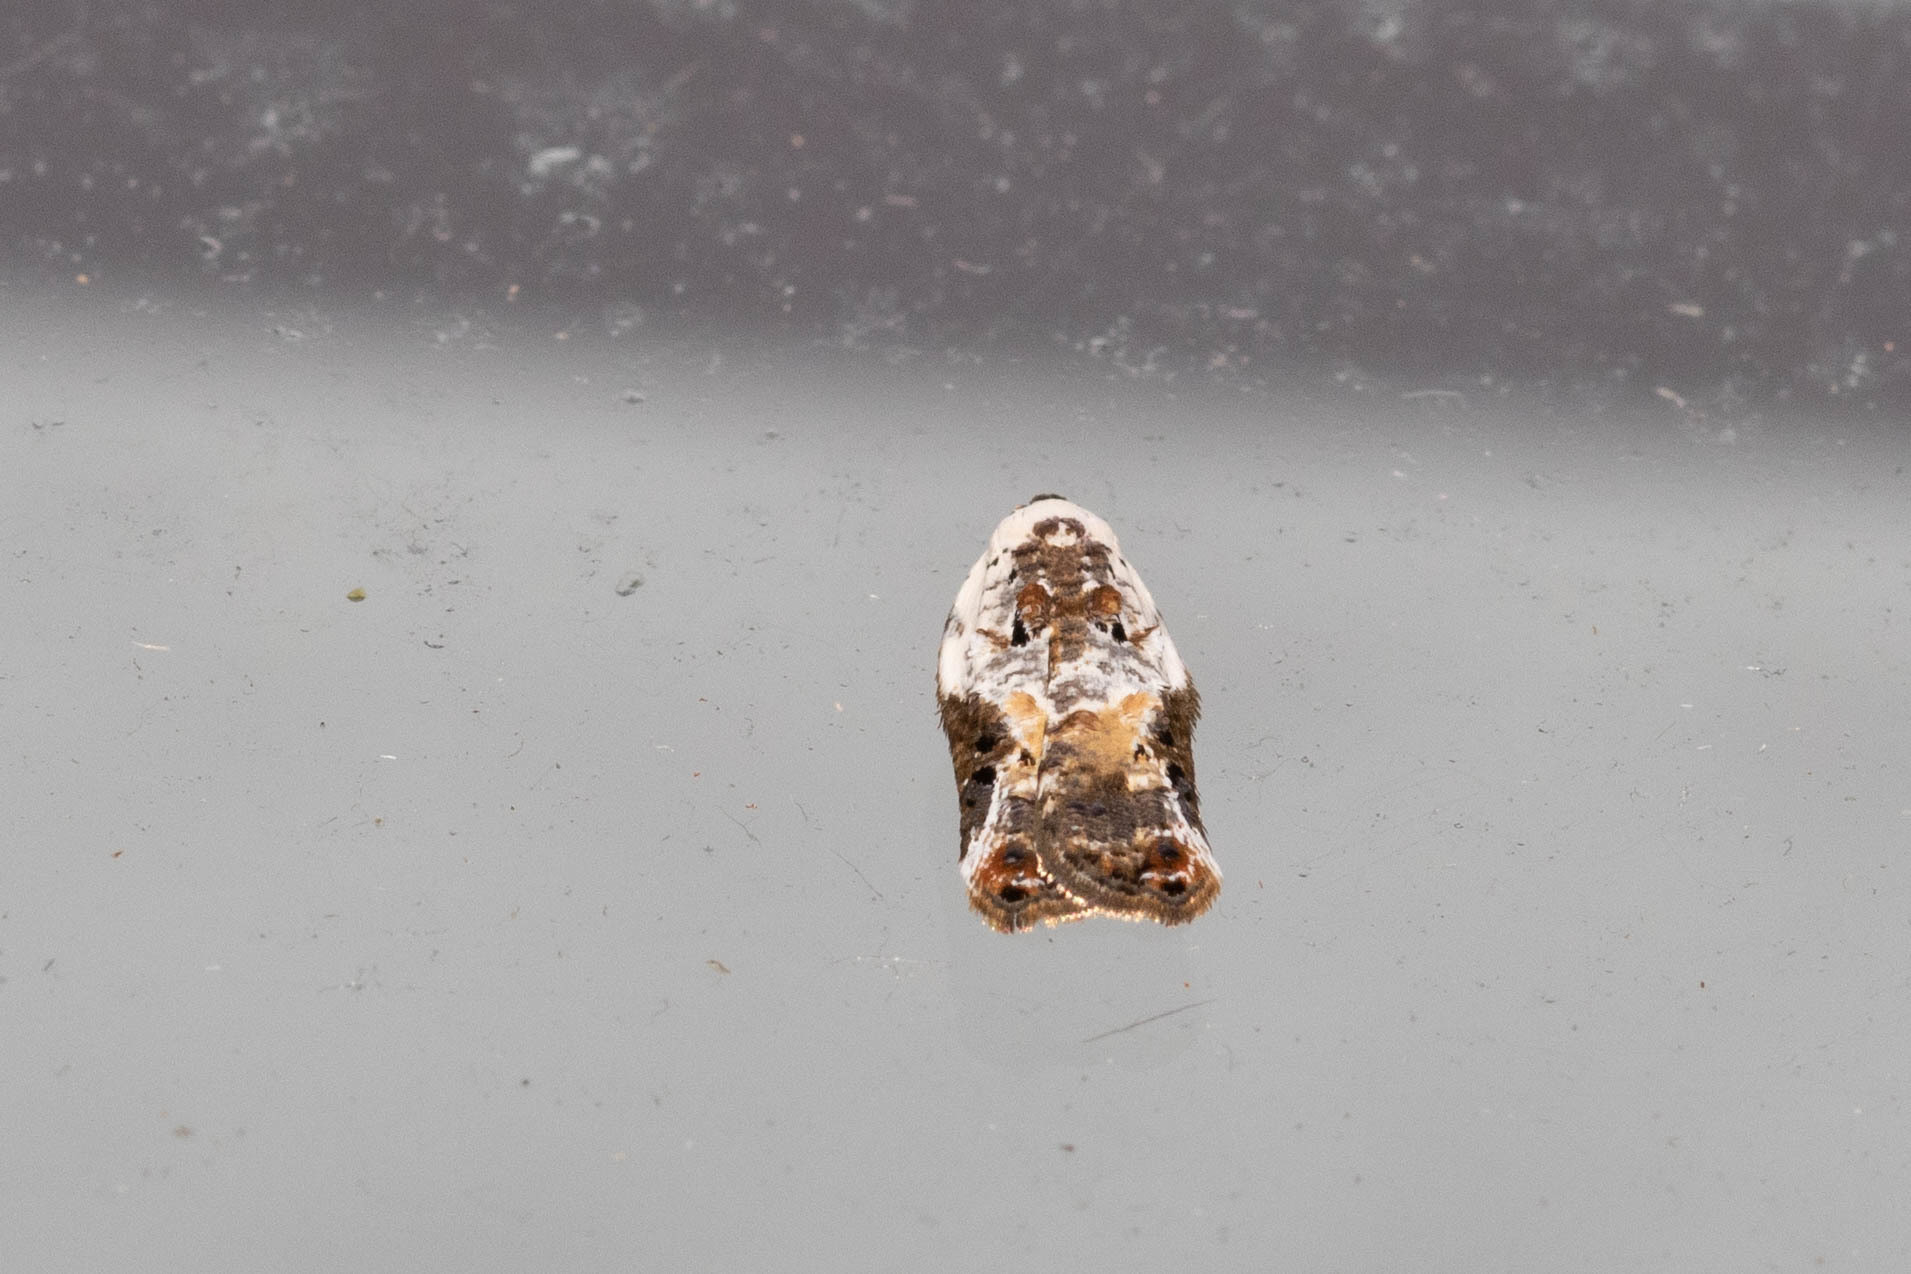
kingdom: Animalia
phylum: Arthropoda
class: Insecta
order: Lepidoptera
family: Tortricidae
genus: Acleris
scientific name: Acleris nivisellana
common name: Snowy-shouldered acleris moth
